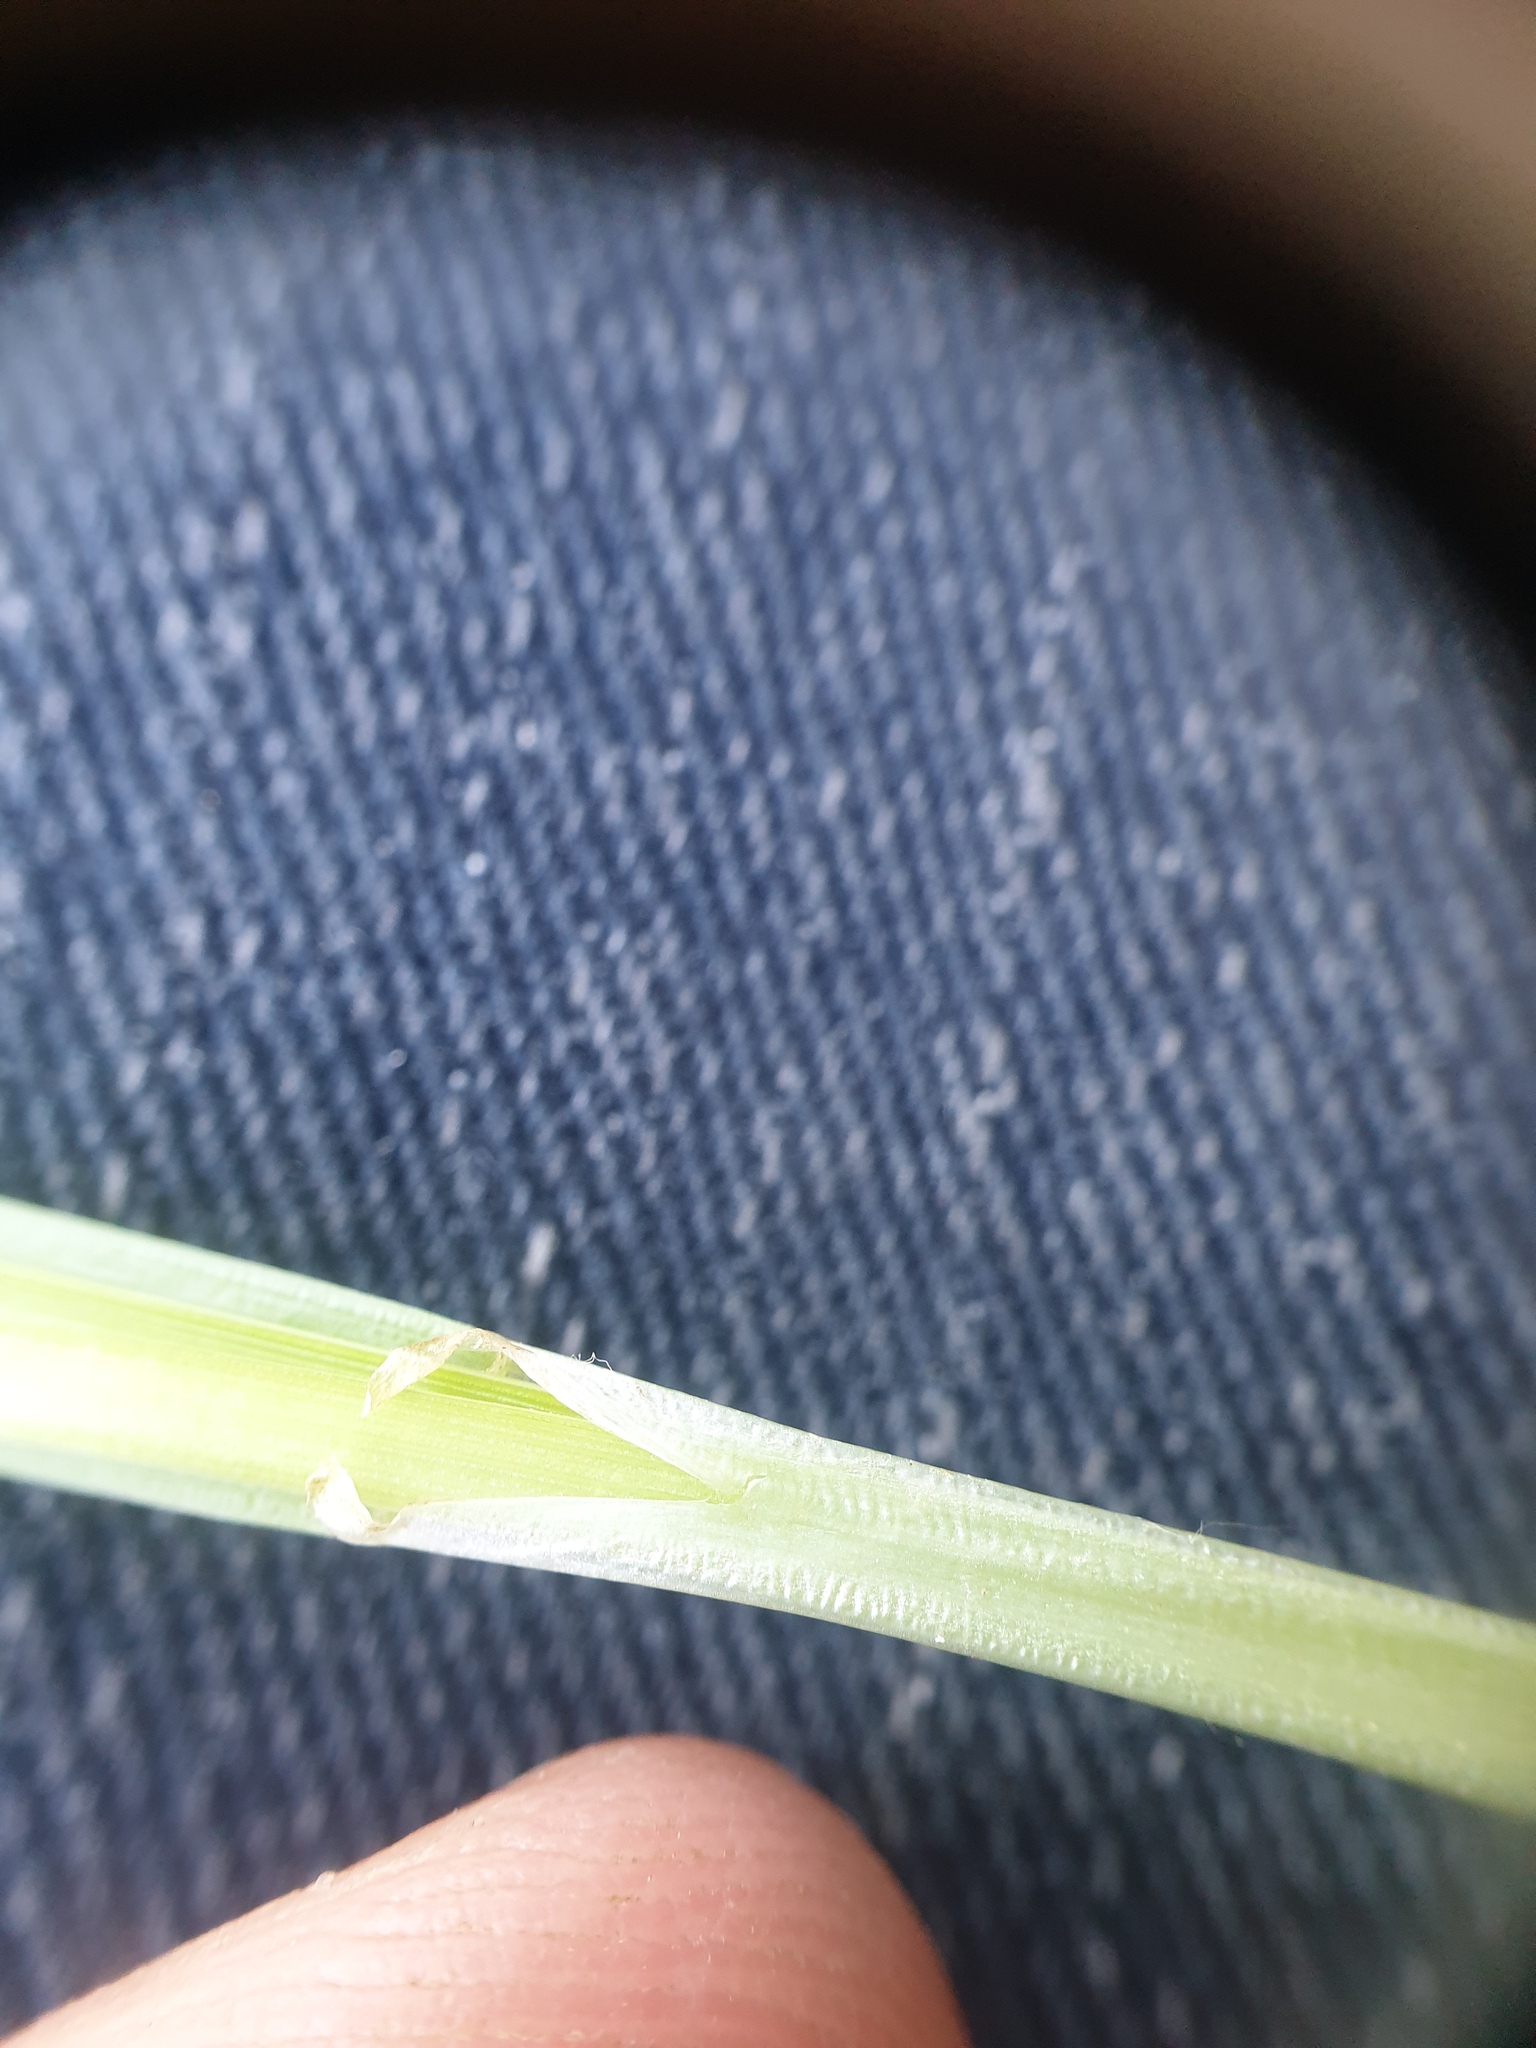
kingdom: Plantae
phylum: Tracheophyta
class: Liliopsida
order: Poales
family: Cyperaceae
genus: Carex
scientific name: Carex stipata
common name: Awl-fruited sedge
